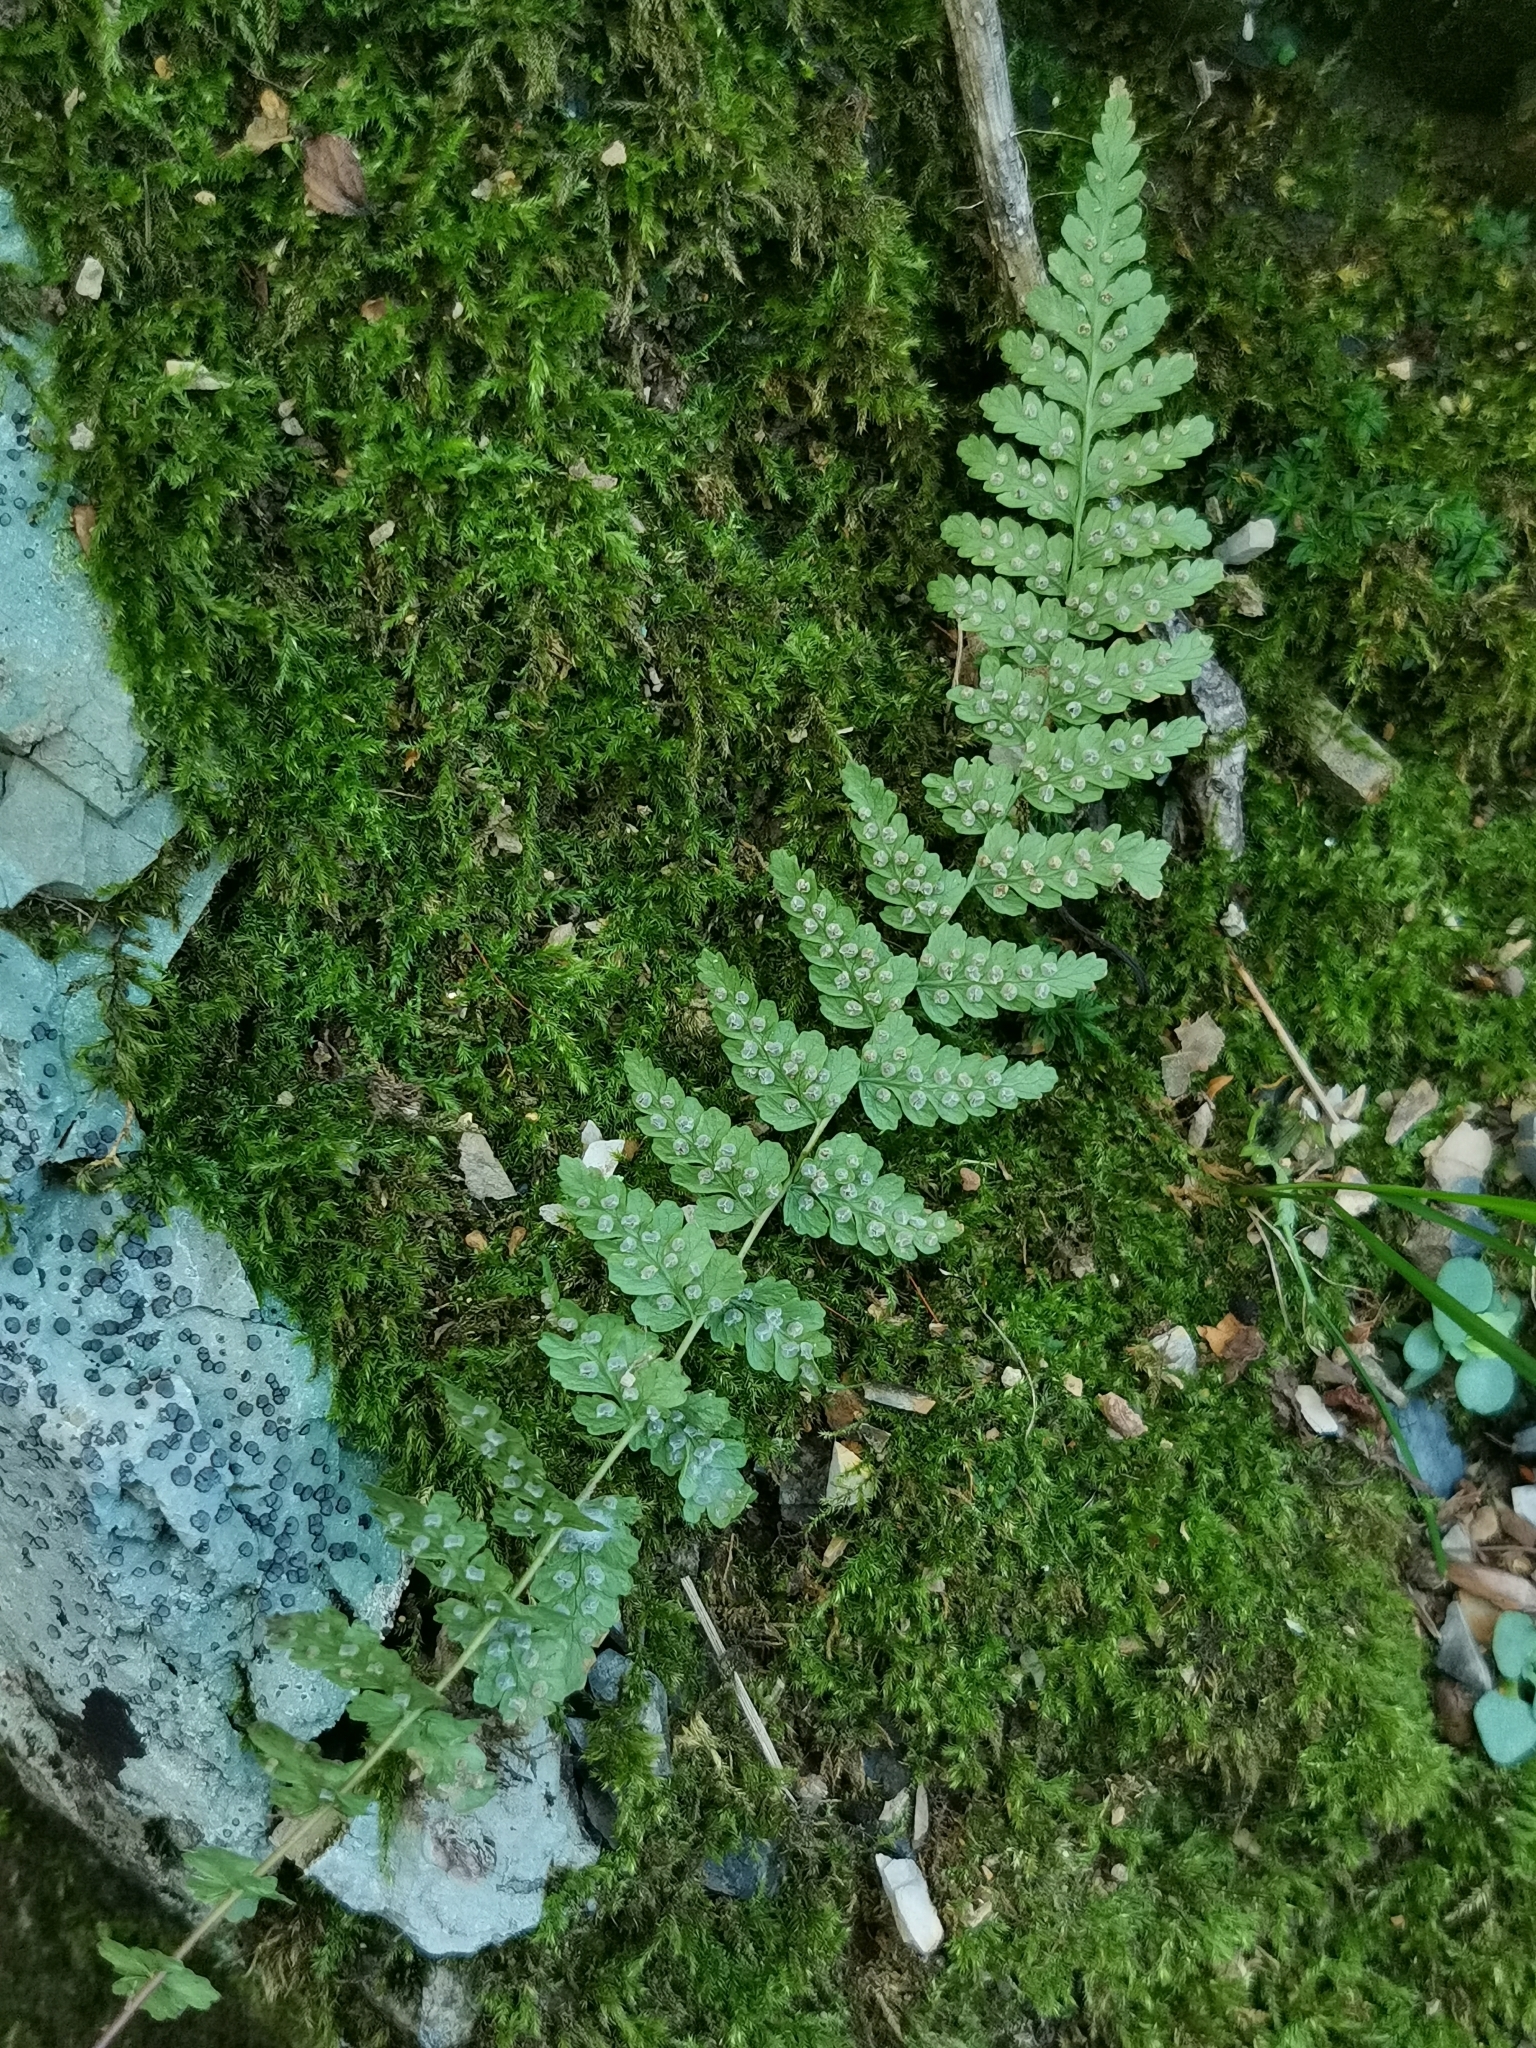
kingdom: Plantae
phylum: Tracheophyta
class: Polypodiopsida
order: Polypodiales
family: Woodsiaceae
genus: Physematium
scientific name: Physematium manchuriense
